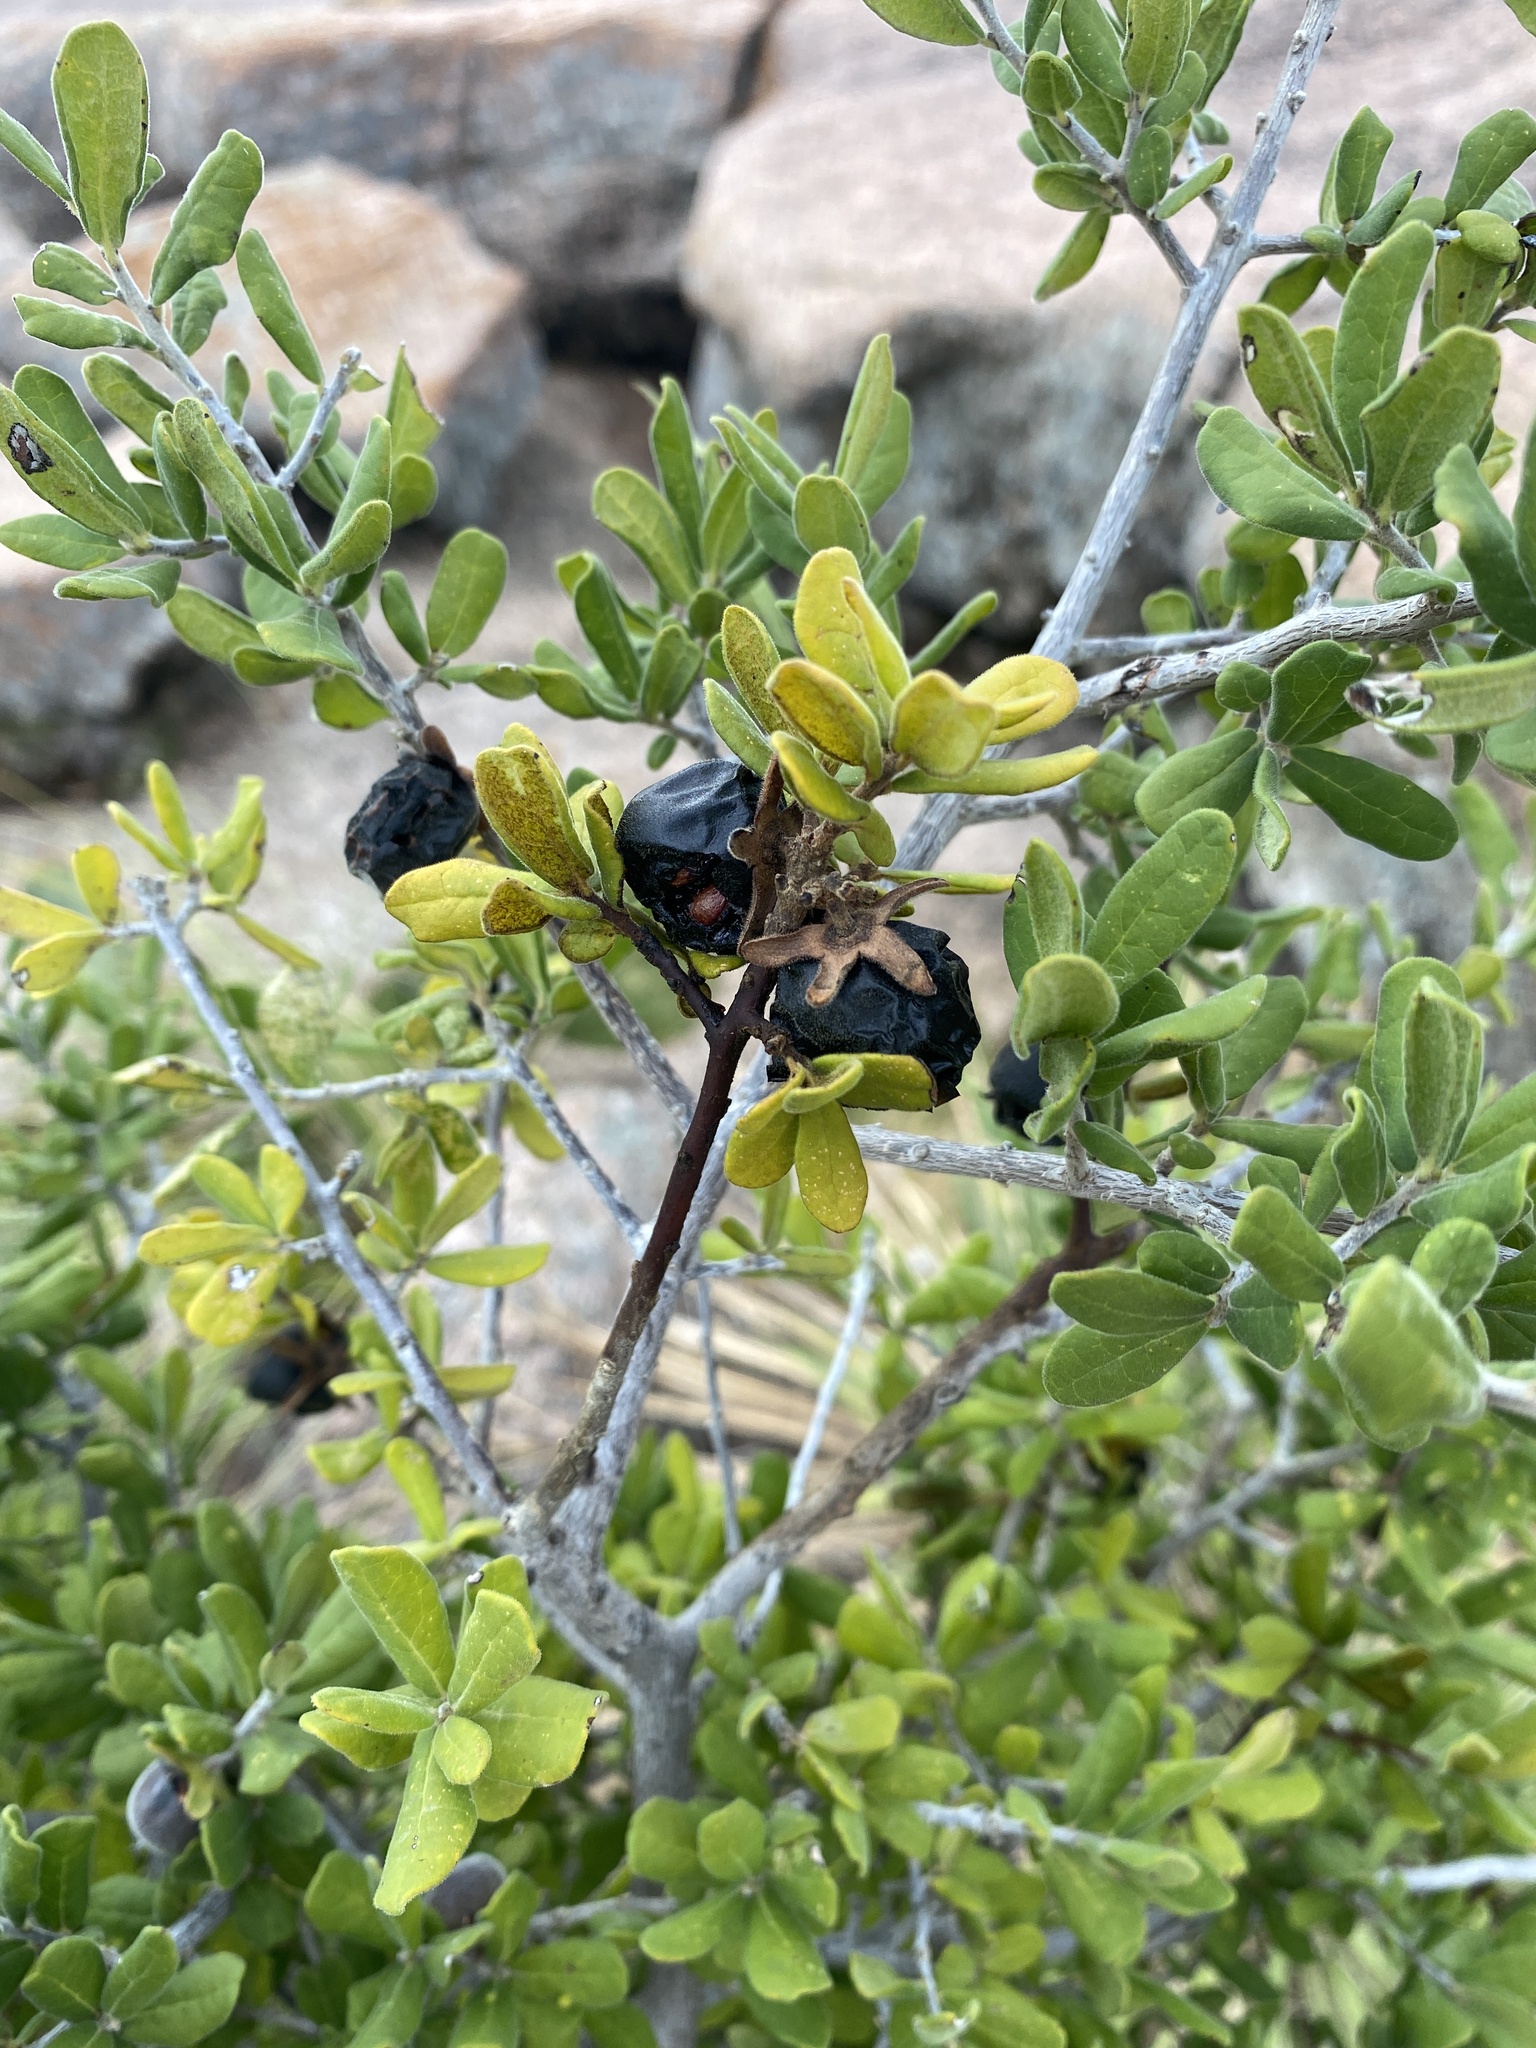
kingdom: Plantae
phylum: Tracheophyta
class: Magnoliopsida
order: Ericales
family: Ebenaceae
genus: Diospyros
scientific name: Diospyros texana
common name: Texas persimmon
